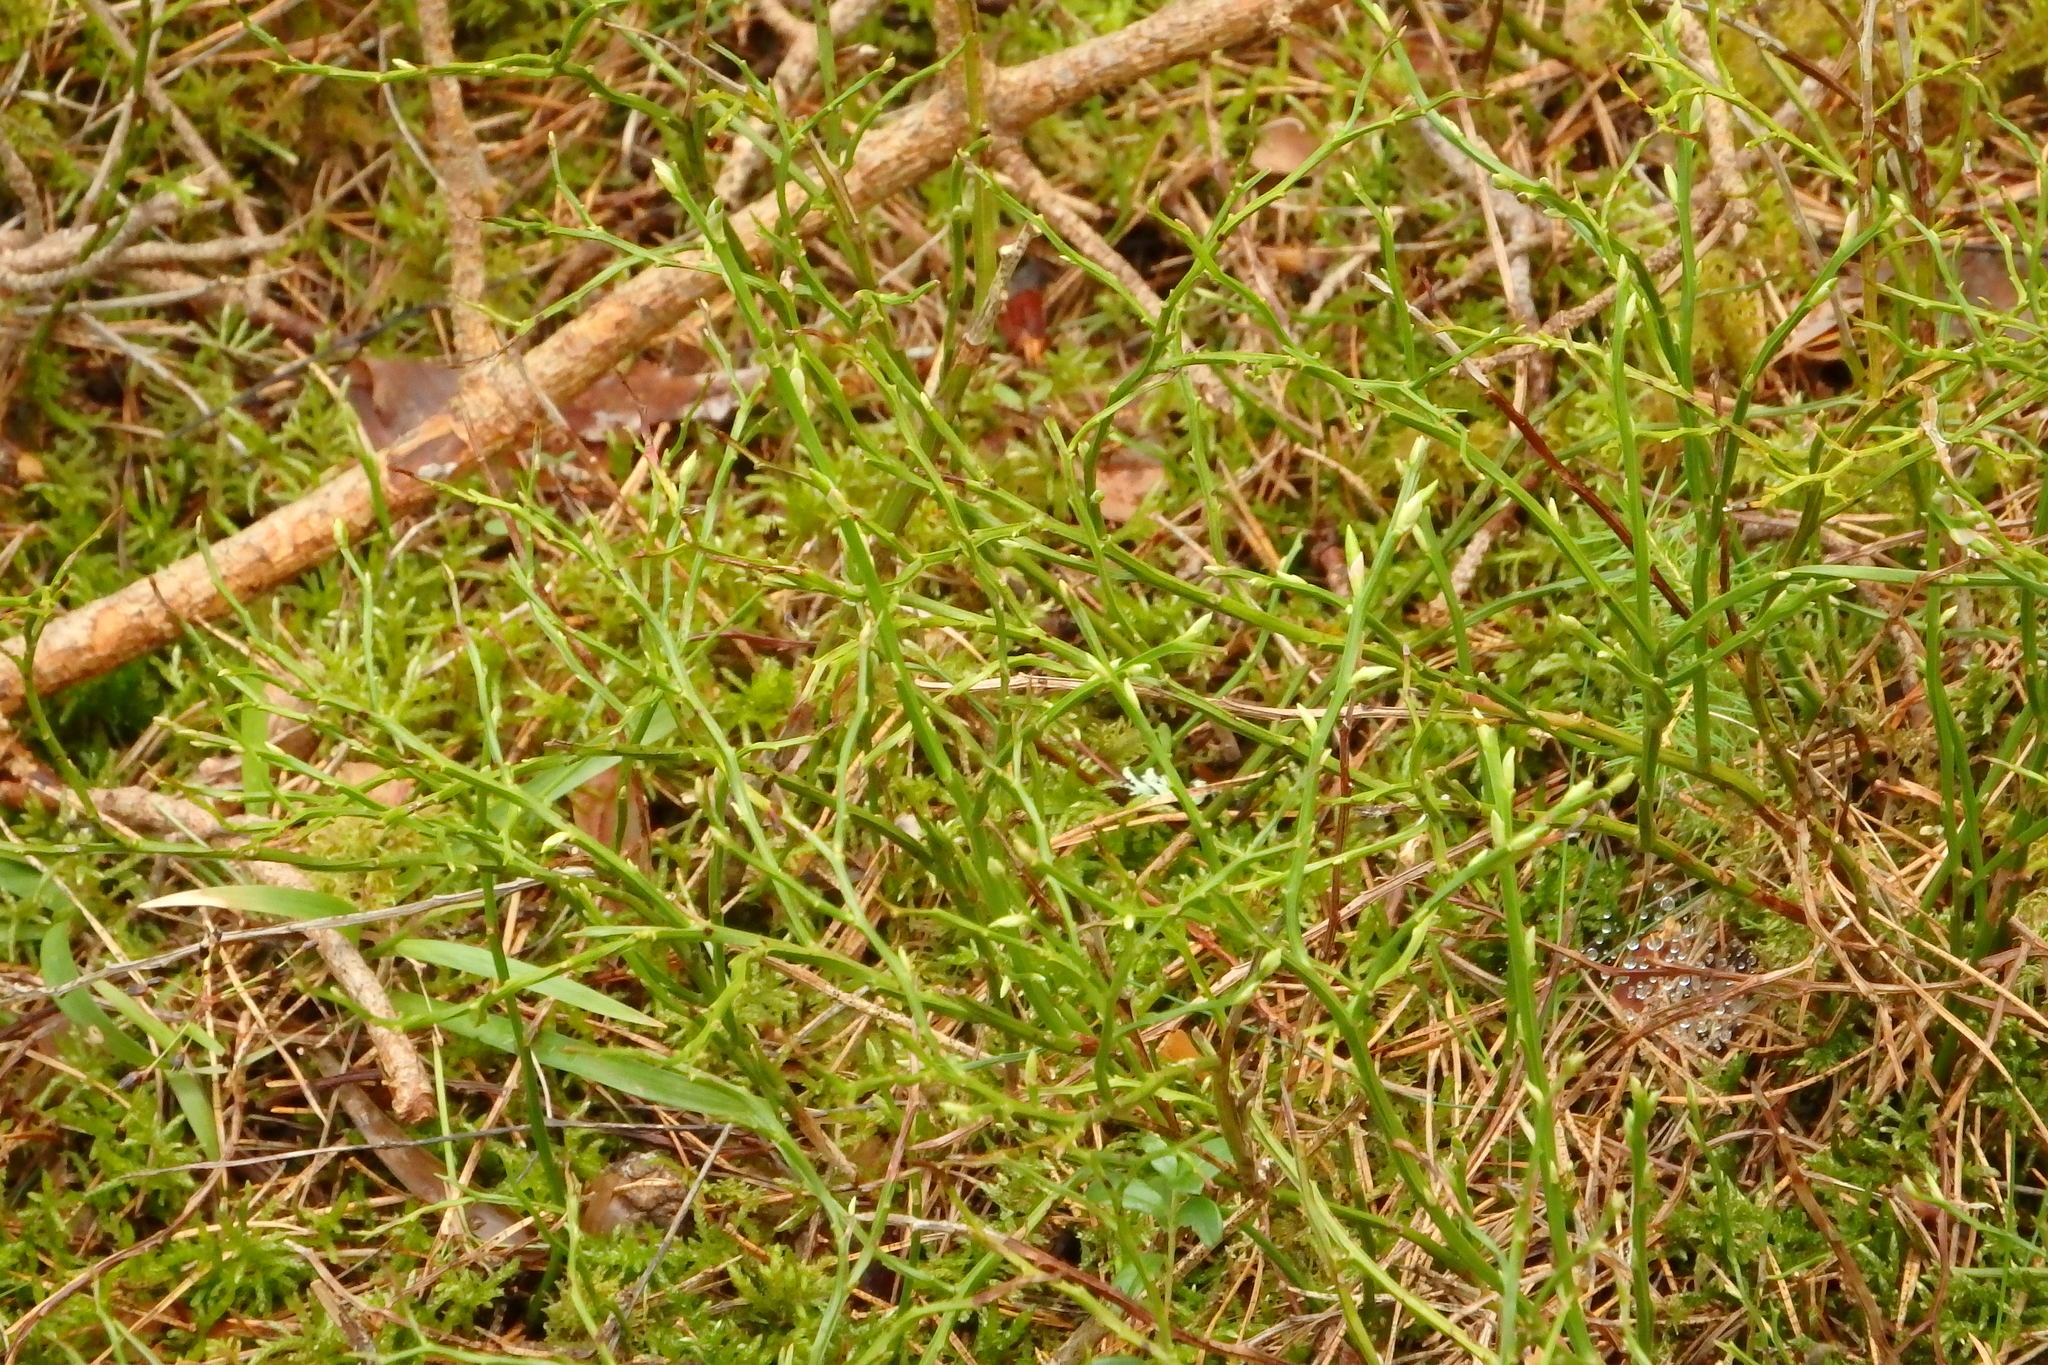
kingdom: Plantae
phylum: Tracheophyta
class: Magnoliopsida
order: Ericales
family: Ericaceae
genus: Vaccinium
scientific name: Vaccinium myrtillus
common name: Bilberry
